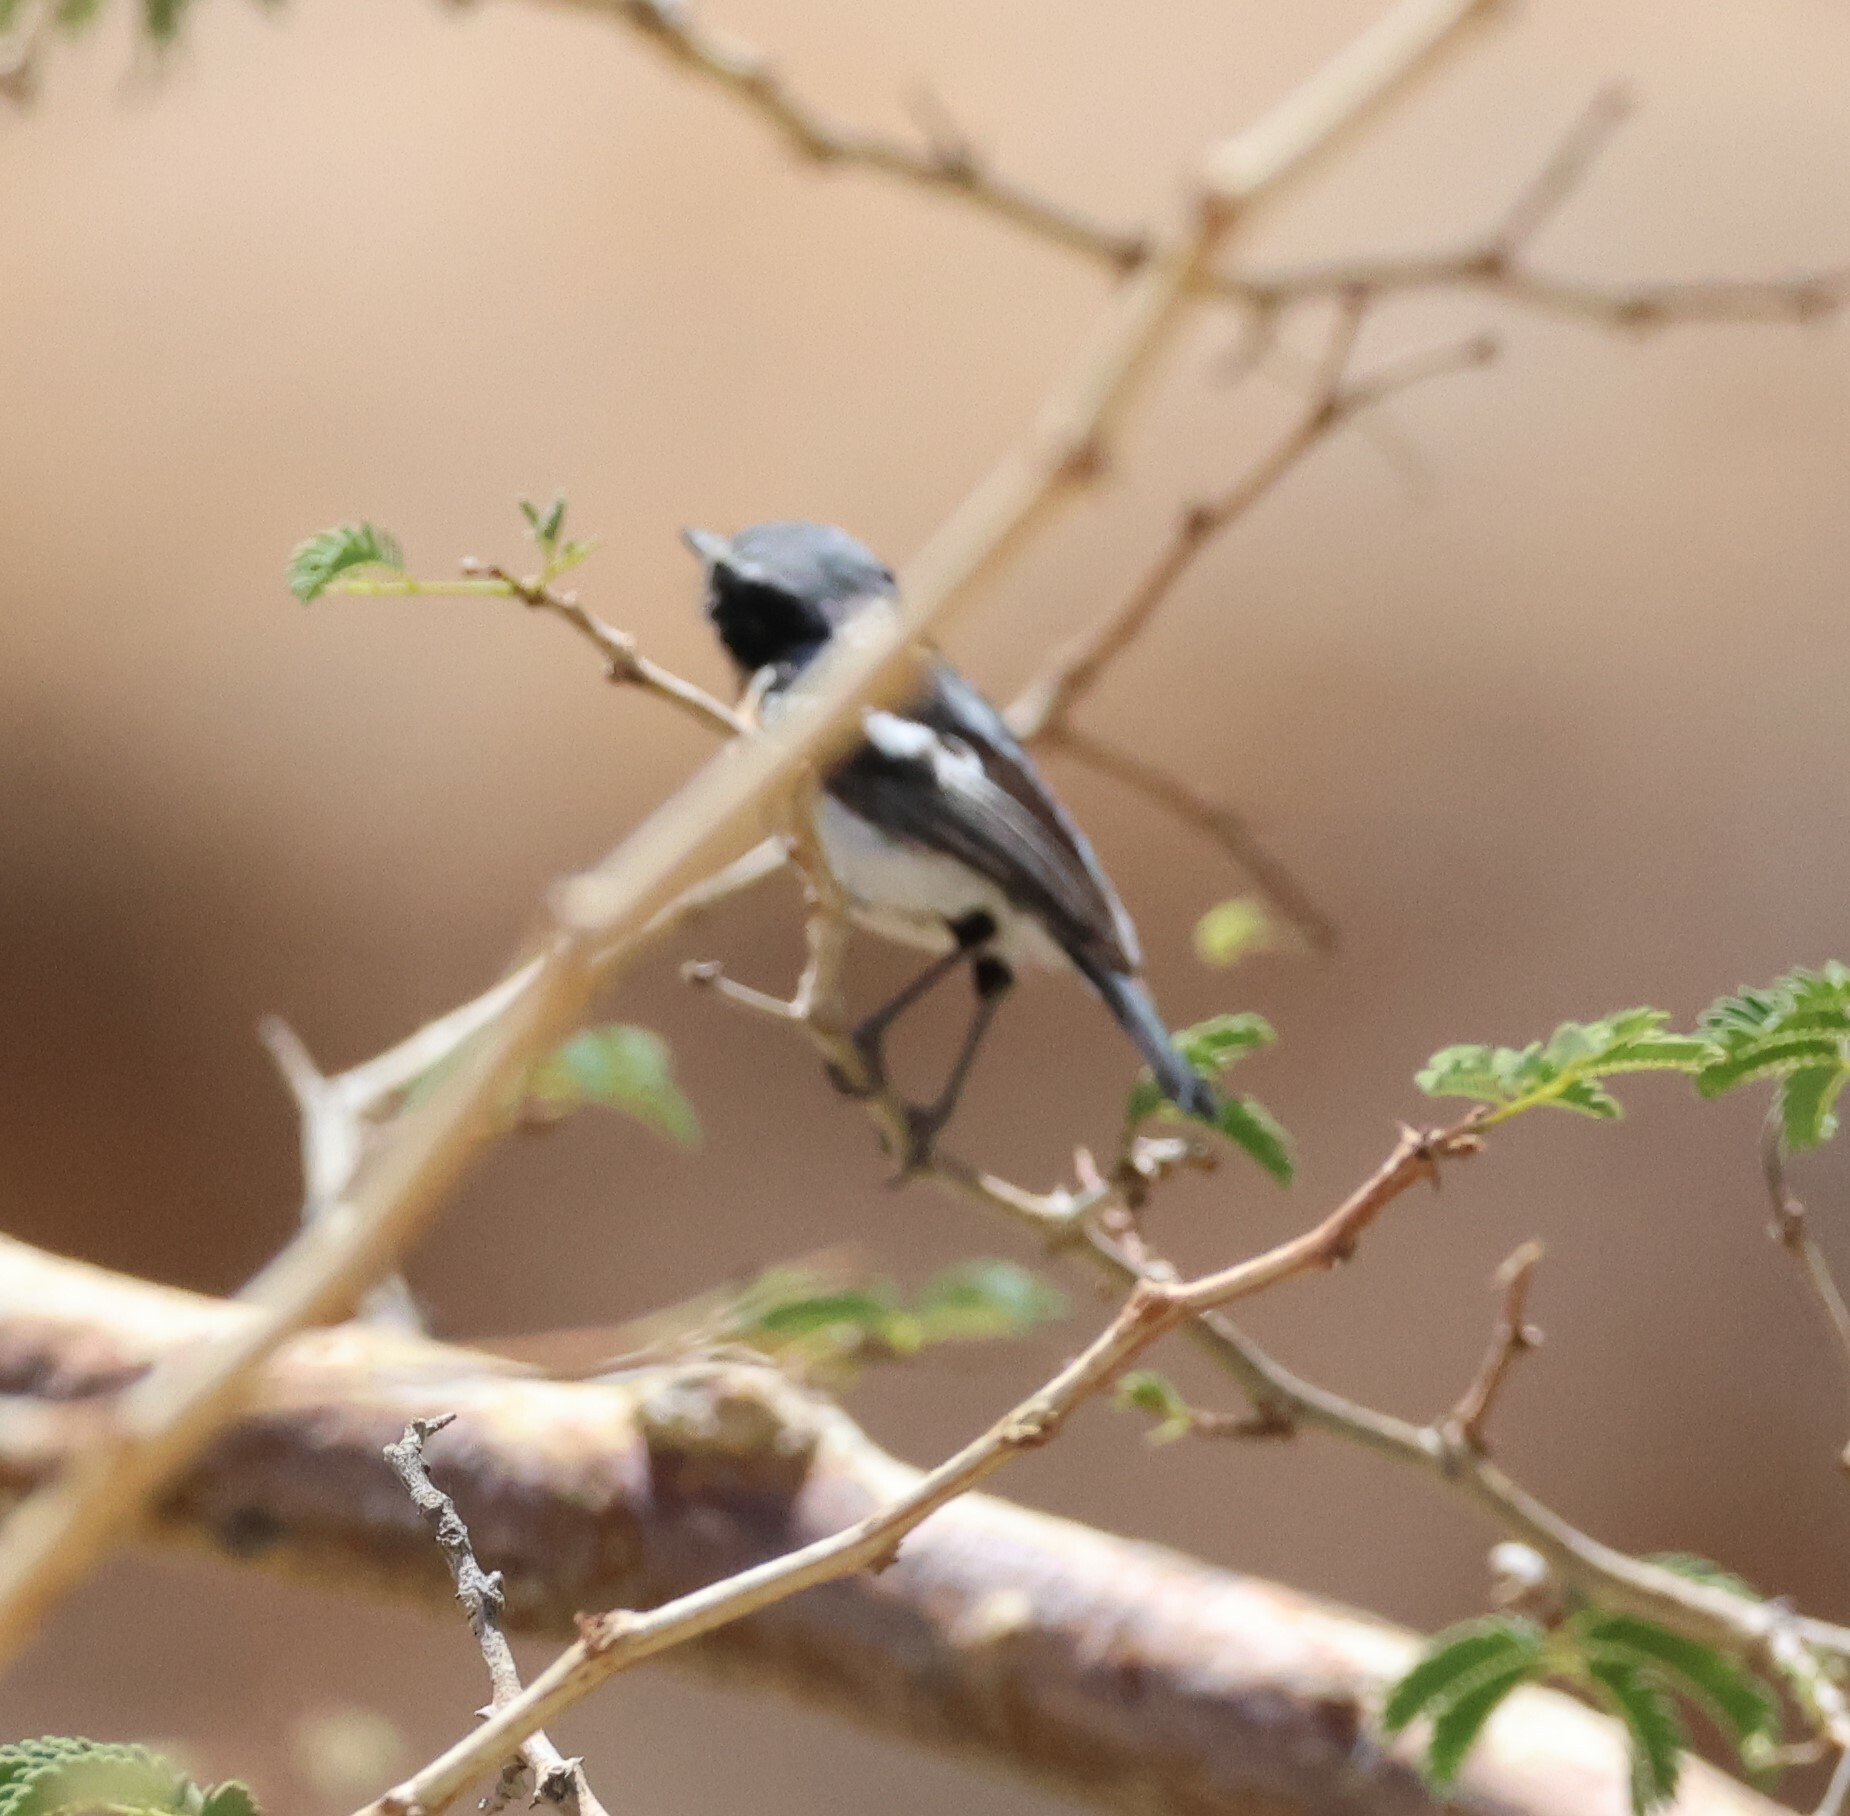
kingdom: Animalia
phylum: Chordata
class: Aves
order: Passeriformes
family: Platysteiridae
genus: Batis
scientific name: Batis pririt
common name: Pririt batis
